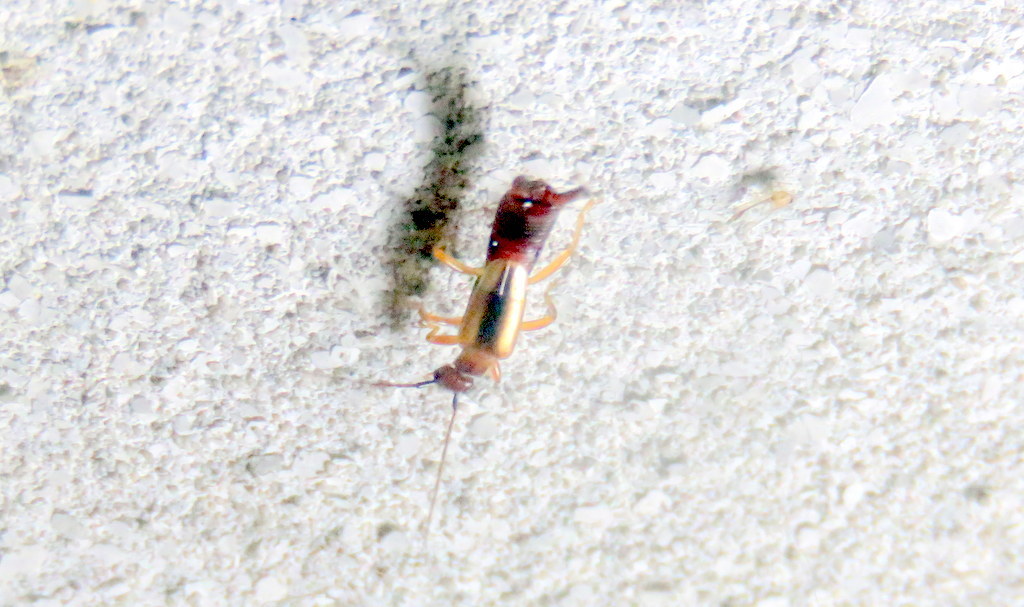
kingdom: Animalia
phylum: Arthropoda
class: Insecta
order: Dermaptera
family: Forficulidae
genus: Doru
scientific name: Doru
